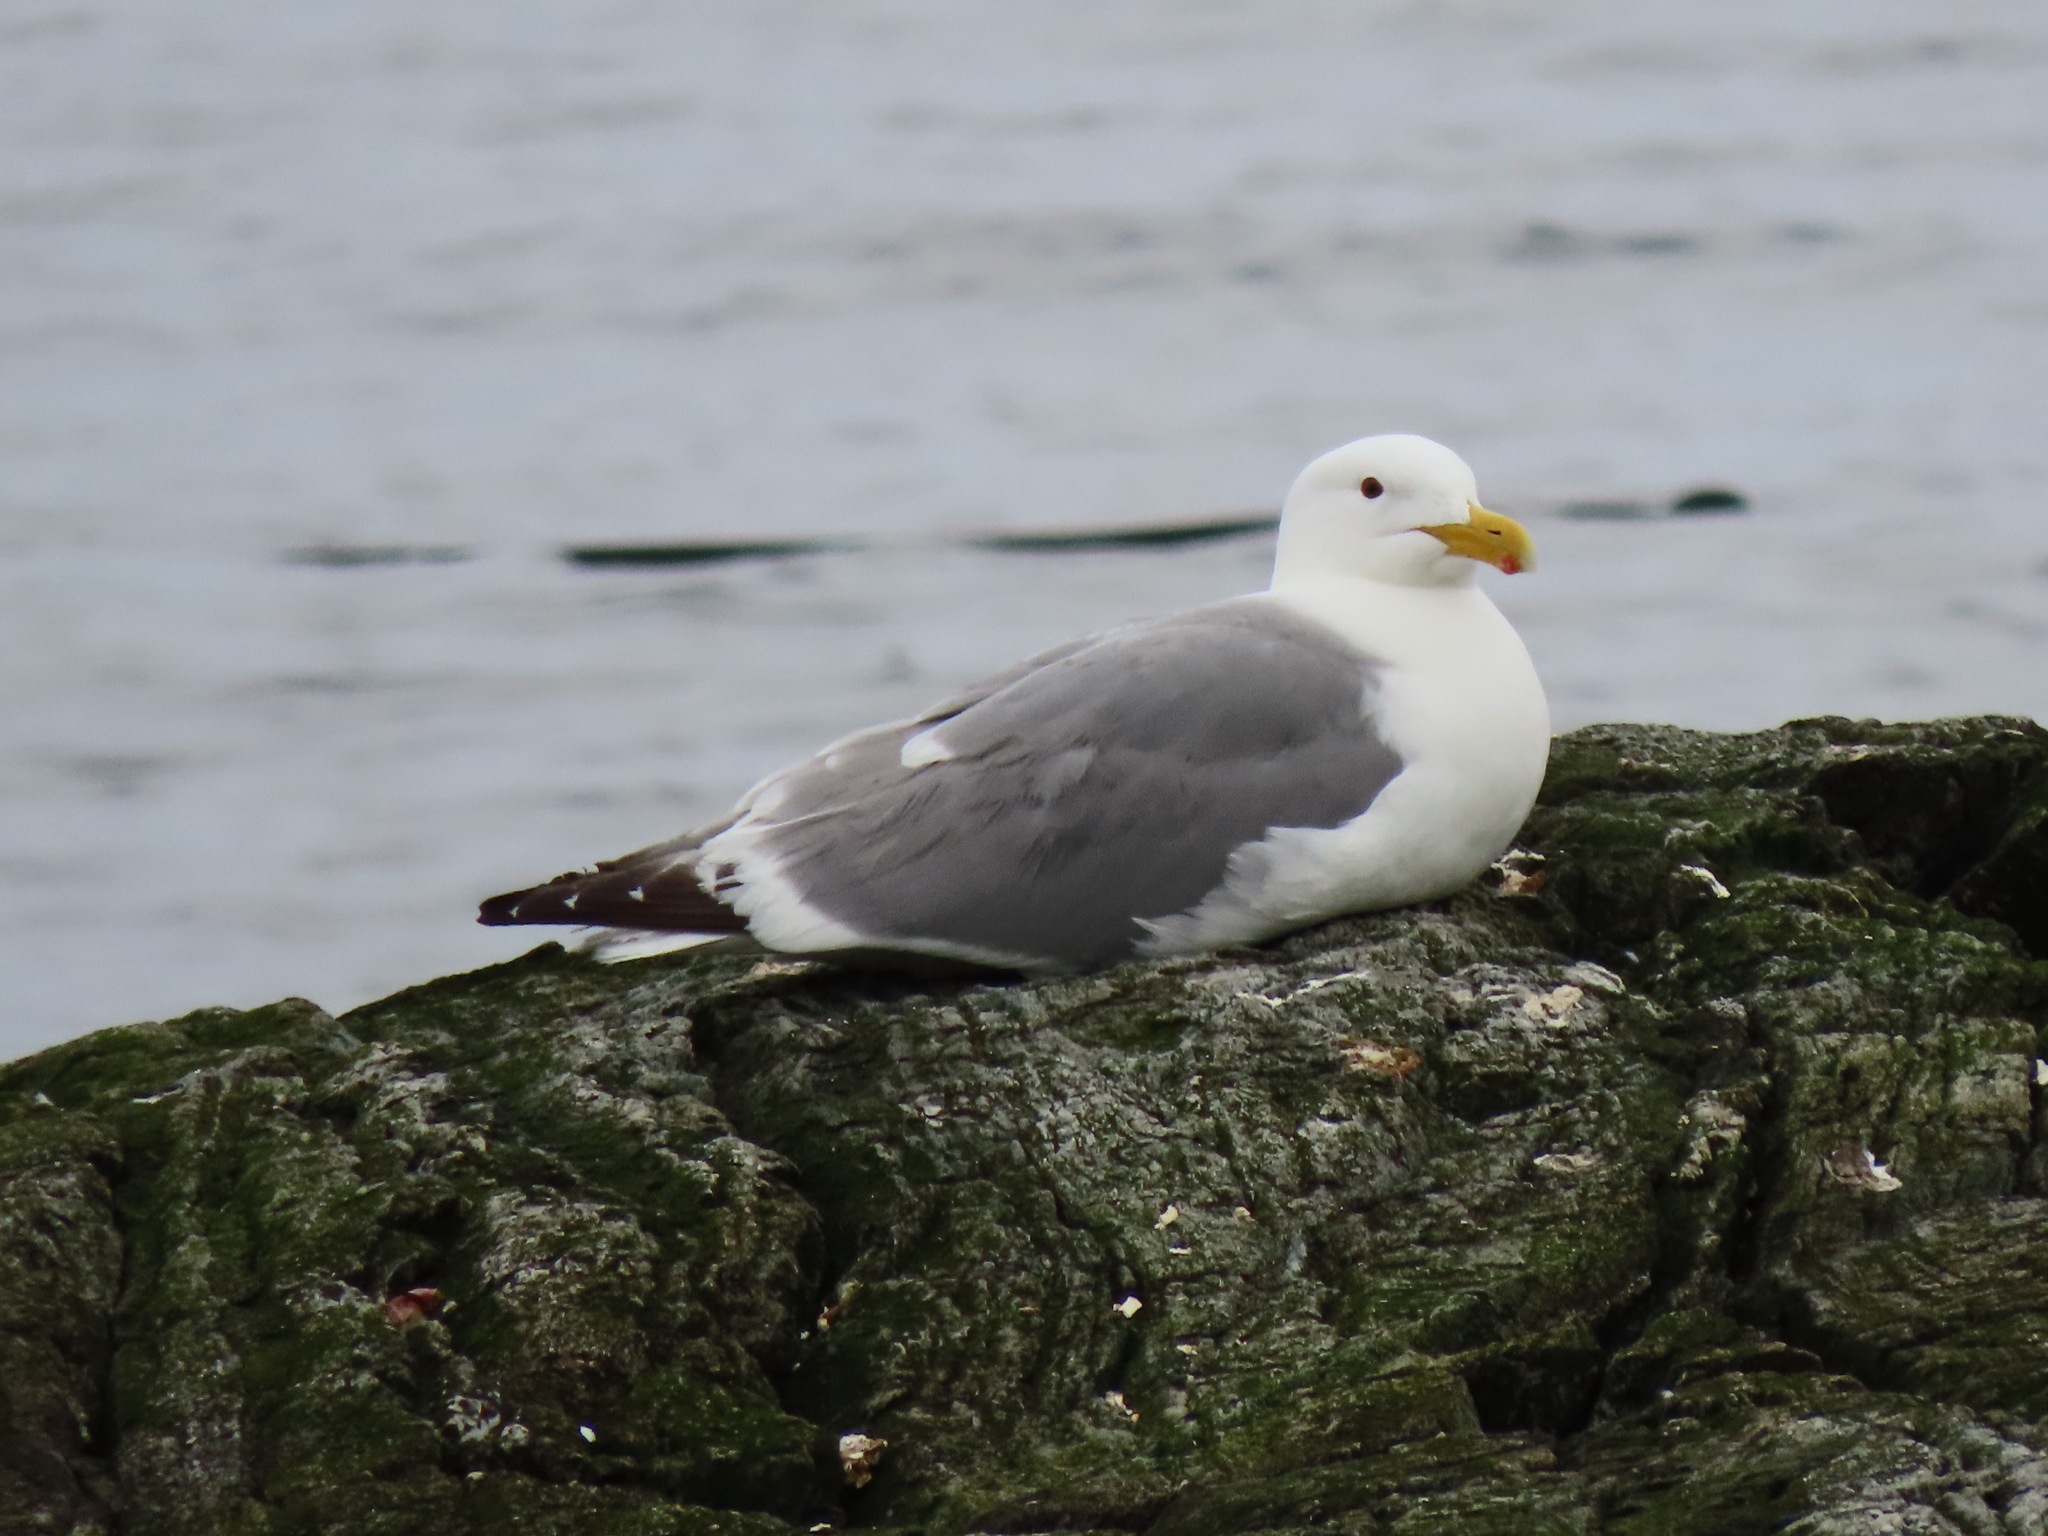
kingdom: Animalia
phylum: Chordata
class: Aves
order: Charadriiformes
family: Laridae
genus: Larus
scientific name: Larus
